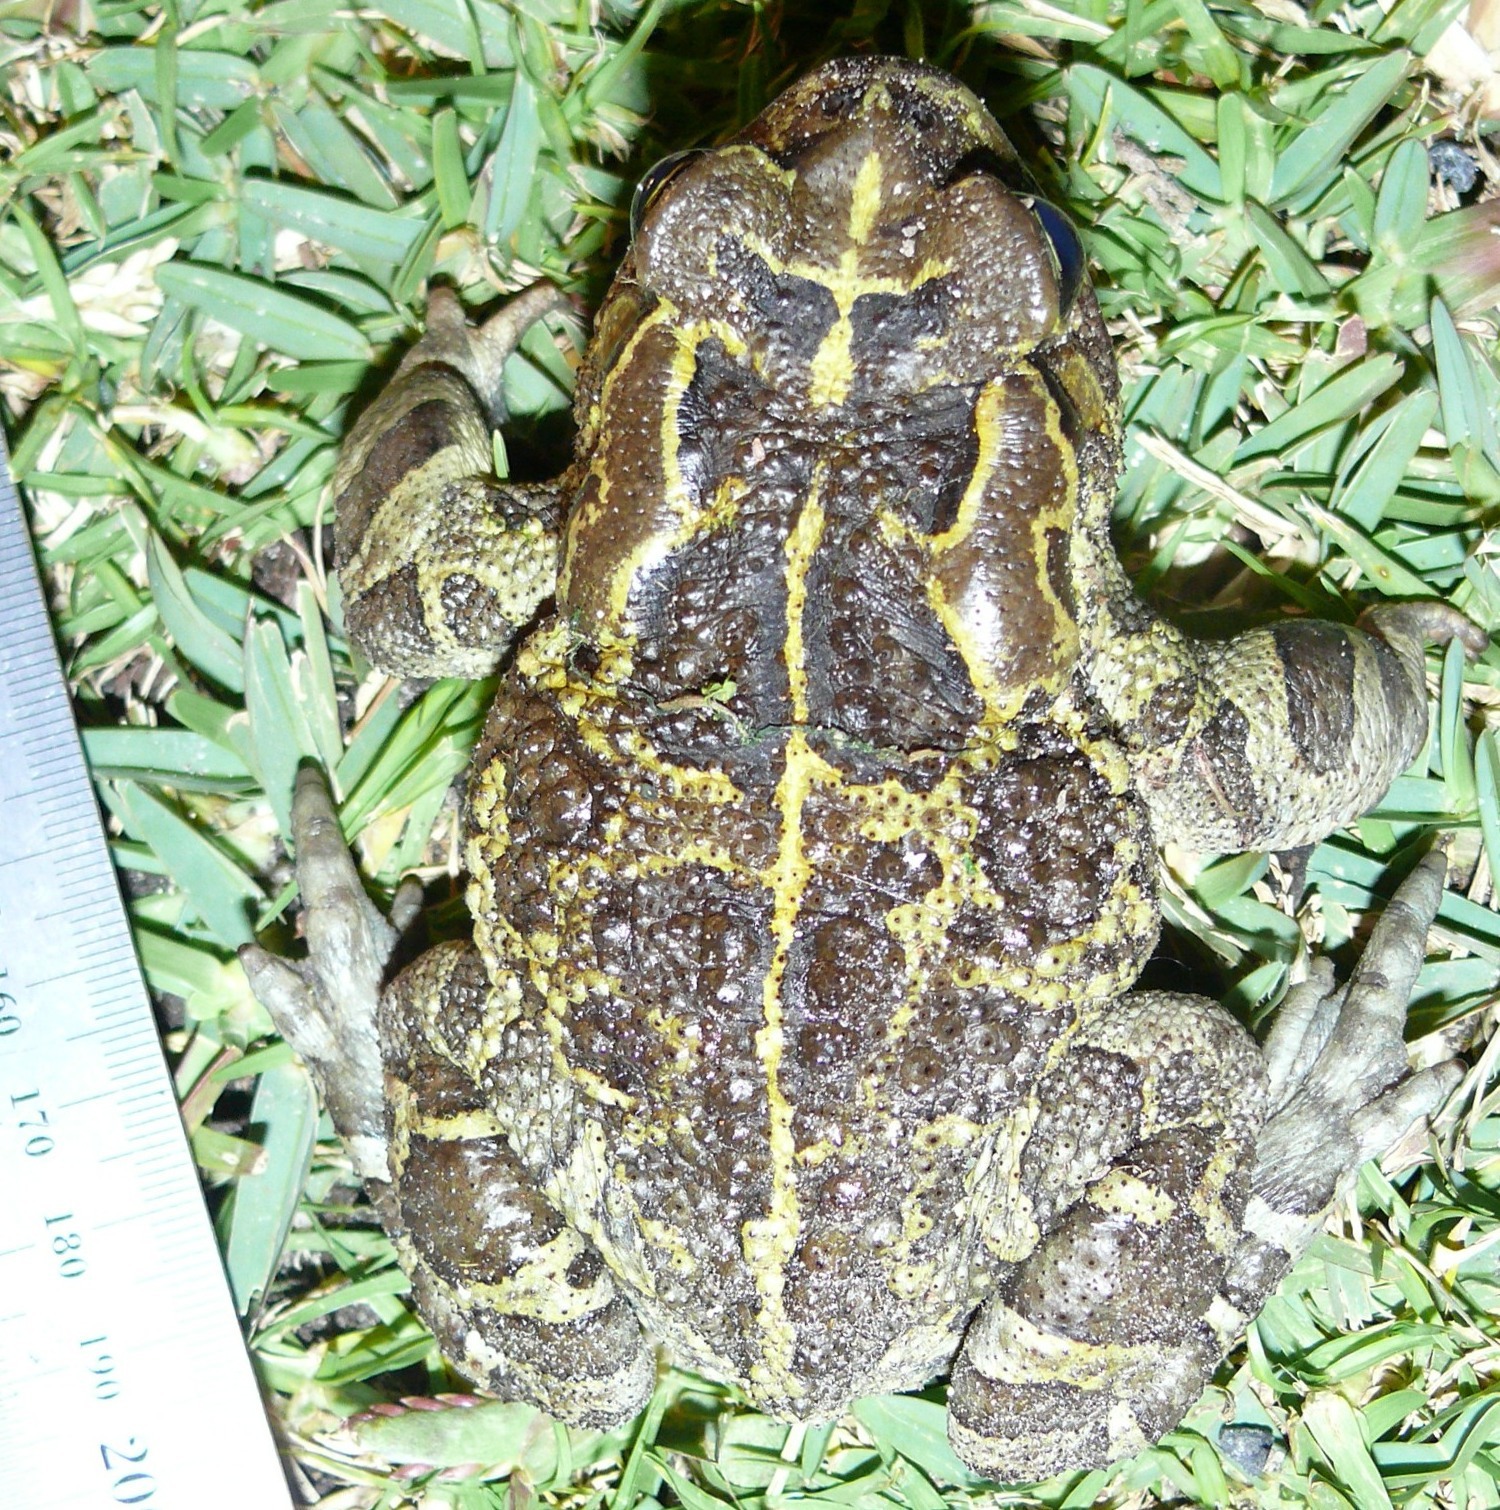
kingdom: Animalia
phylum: Chordata
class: Amphibia
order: Anura
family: Bufonidae
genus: Sclerophrys
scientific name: Sclerophrys pantherina
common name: Panther toad
